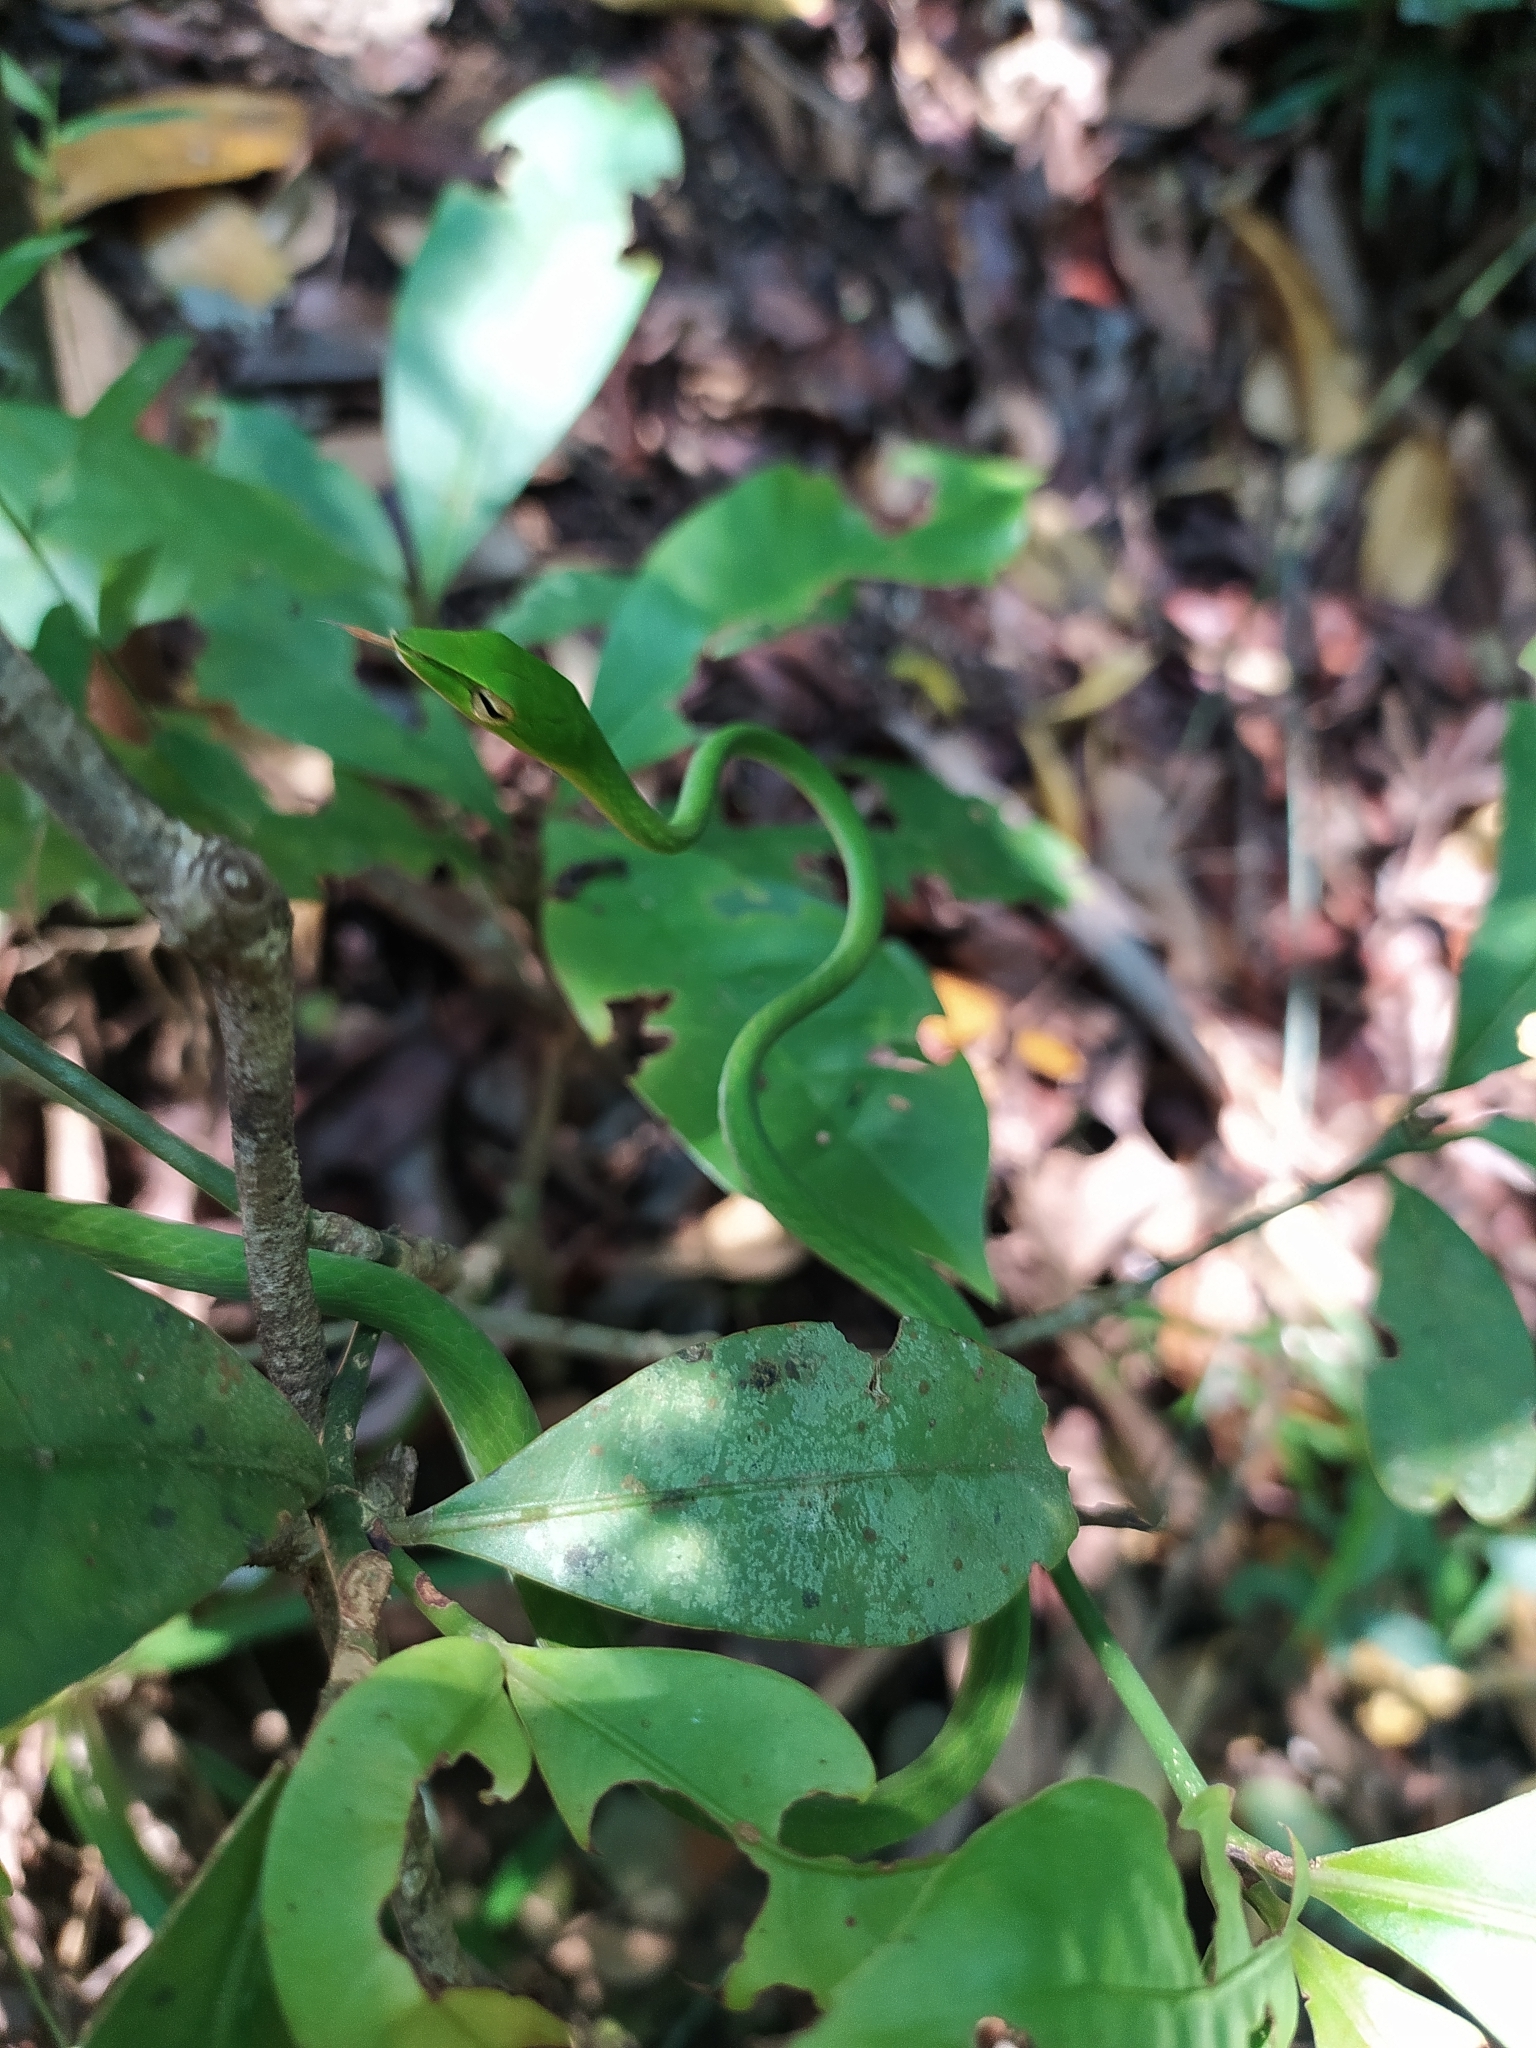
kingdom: Animalia
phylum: Chordata
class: Squamata
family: Colubridae
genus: Ahaetulla
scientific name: Ahaetulla farnsworthi
